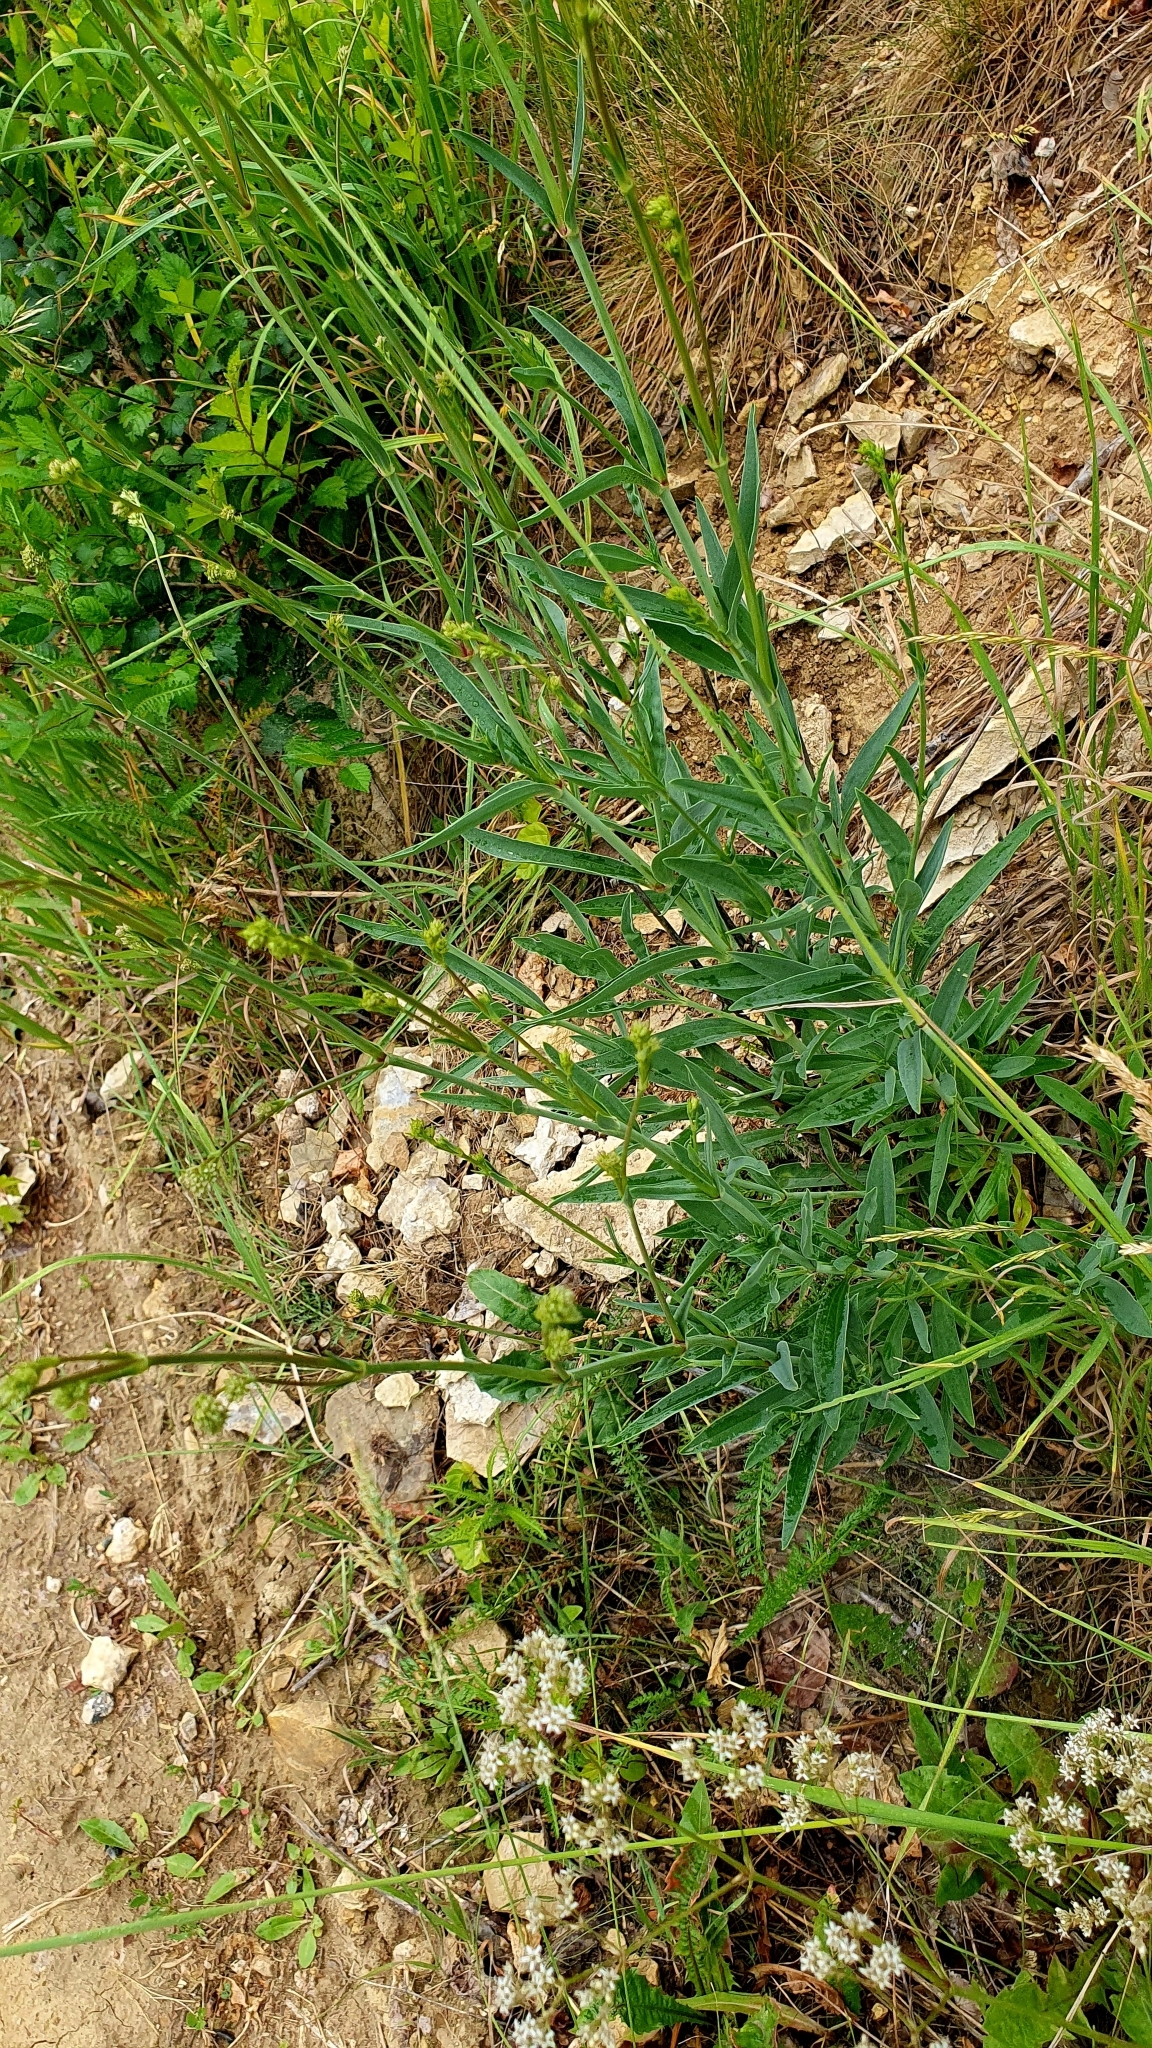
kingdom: Plantae
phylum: Tracheophyta
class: Magnoliopsida
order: Caryophyllales
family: Caryophyllaceae
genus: Gypsophila
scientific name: Gypsophila altissima
